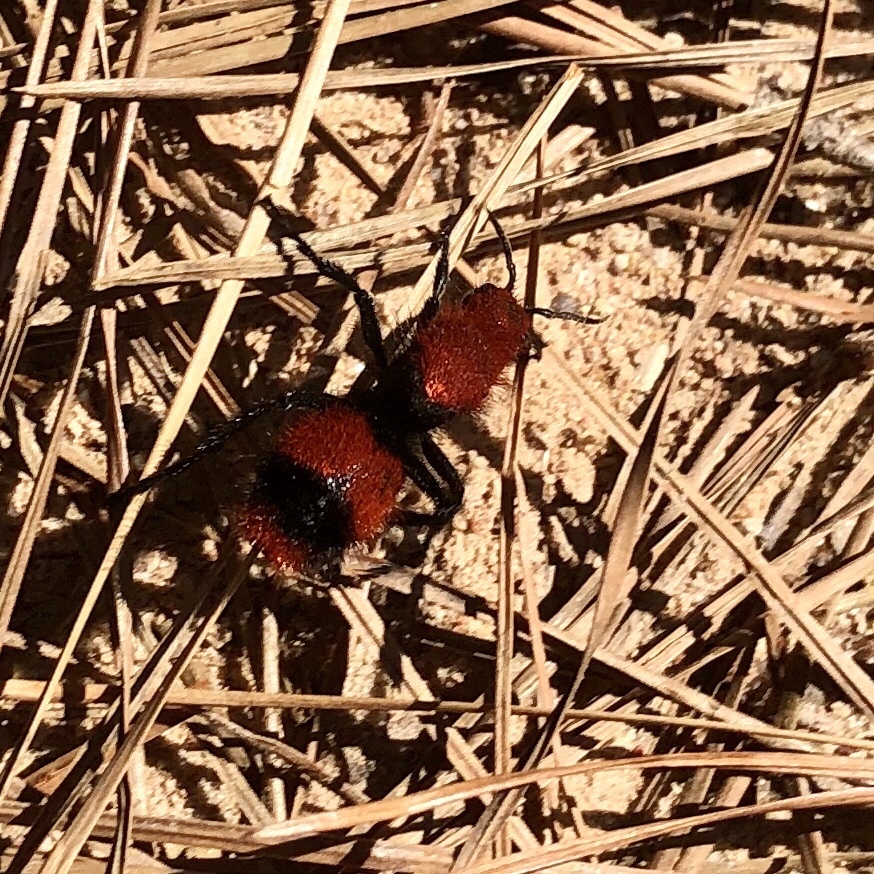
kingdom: Animalia
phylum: Arthropoda
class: Insecta
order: Hymenoptera
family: Mutillidae
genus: Dasymutilla
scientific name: Dasymutilla occidentalis
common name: Common eastern velvet ant
